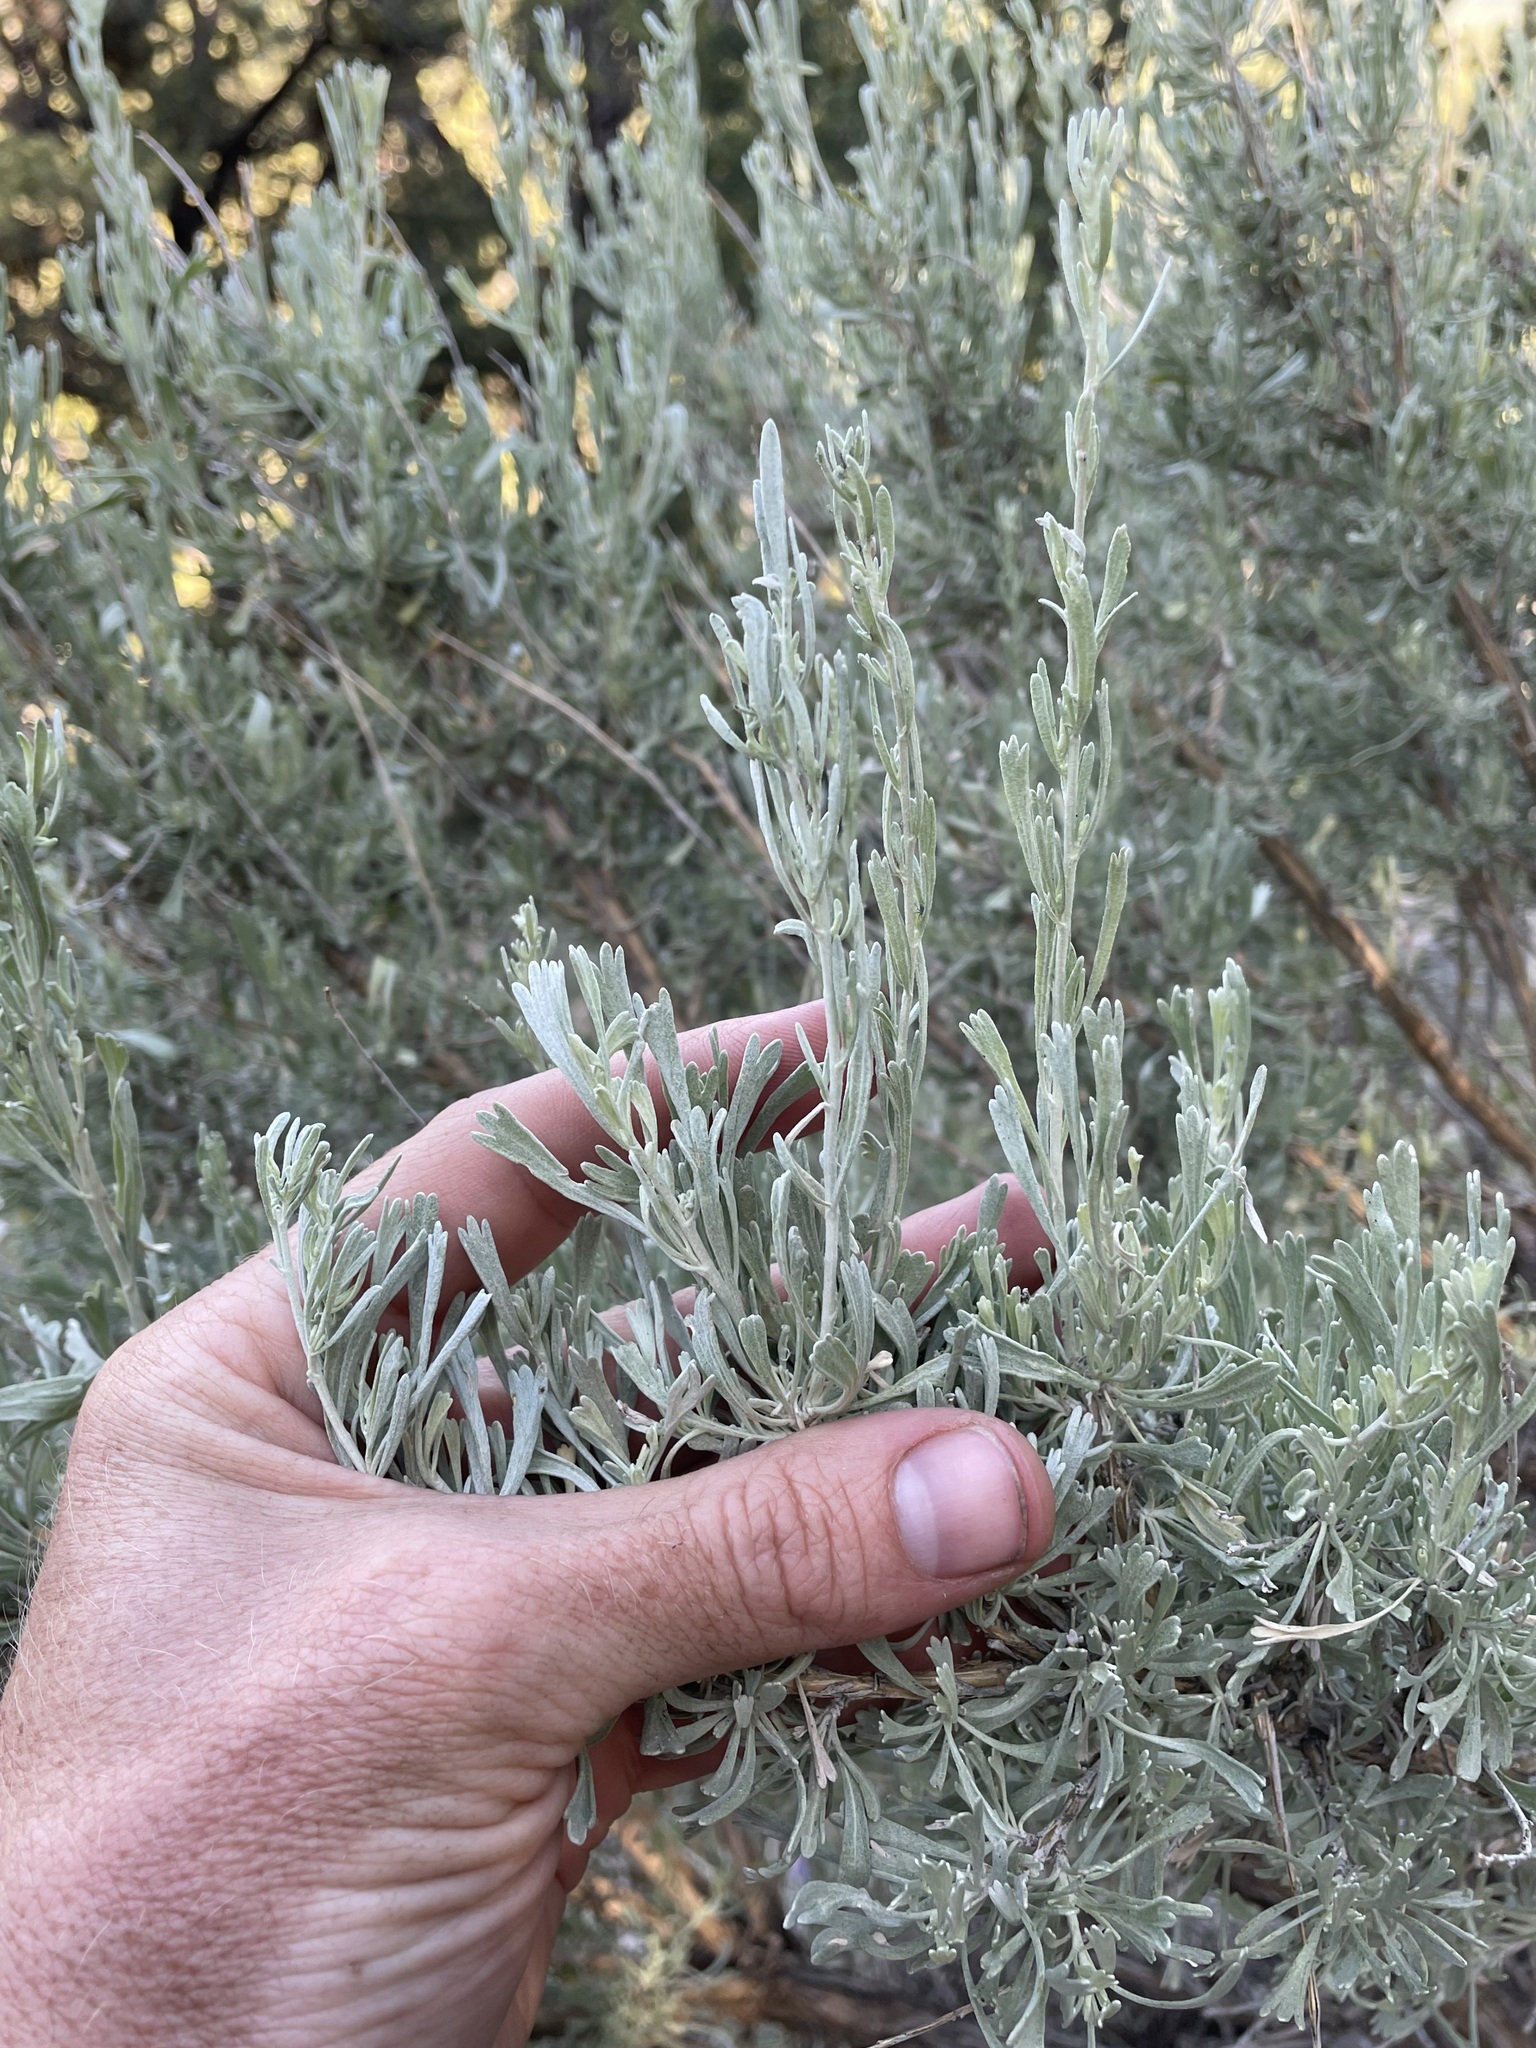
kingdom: Plantae
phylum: Tracheophyta
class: Magnoliopsida
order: Asterales
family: Asteraceae
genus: Artemisia
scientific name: Artemisia tridentata
